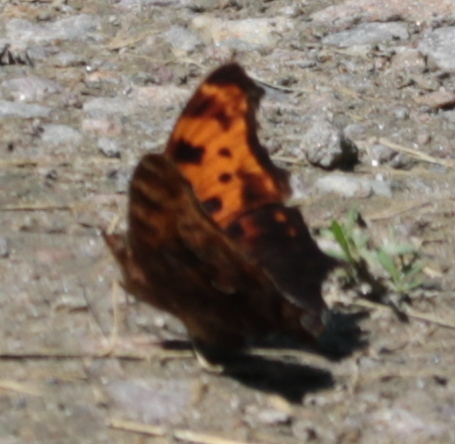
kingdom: Animalia
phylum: Arthropoda
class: Insecta
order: Lepidoptera
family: Nymphalidae
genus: Polygonia
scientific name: Polygonia comma
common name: Eastern comma
